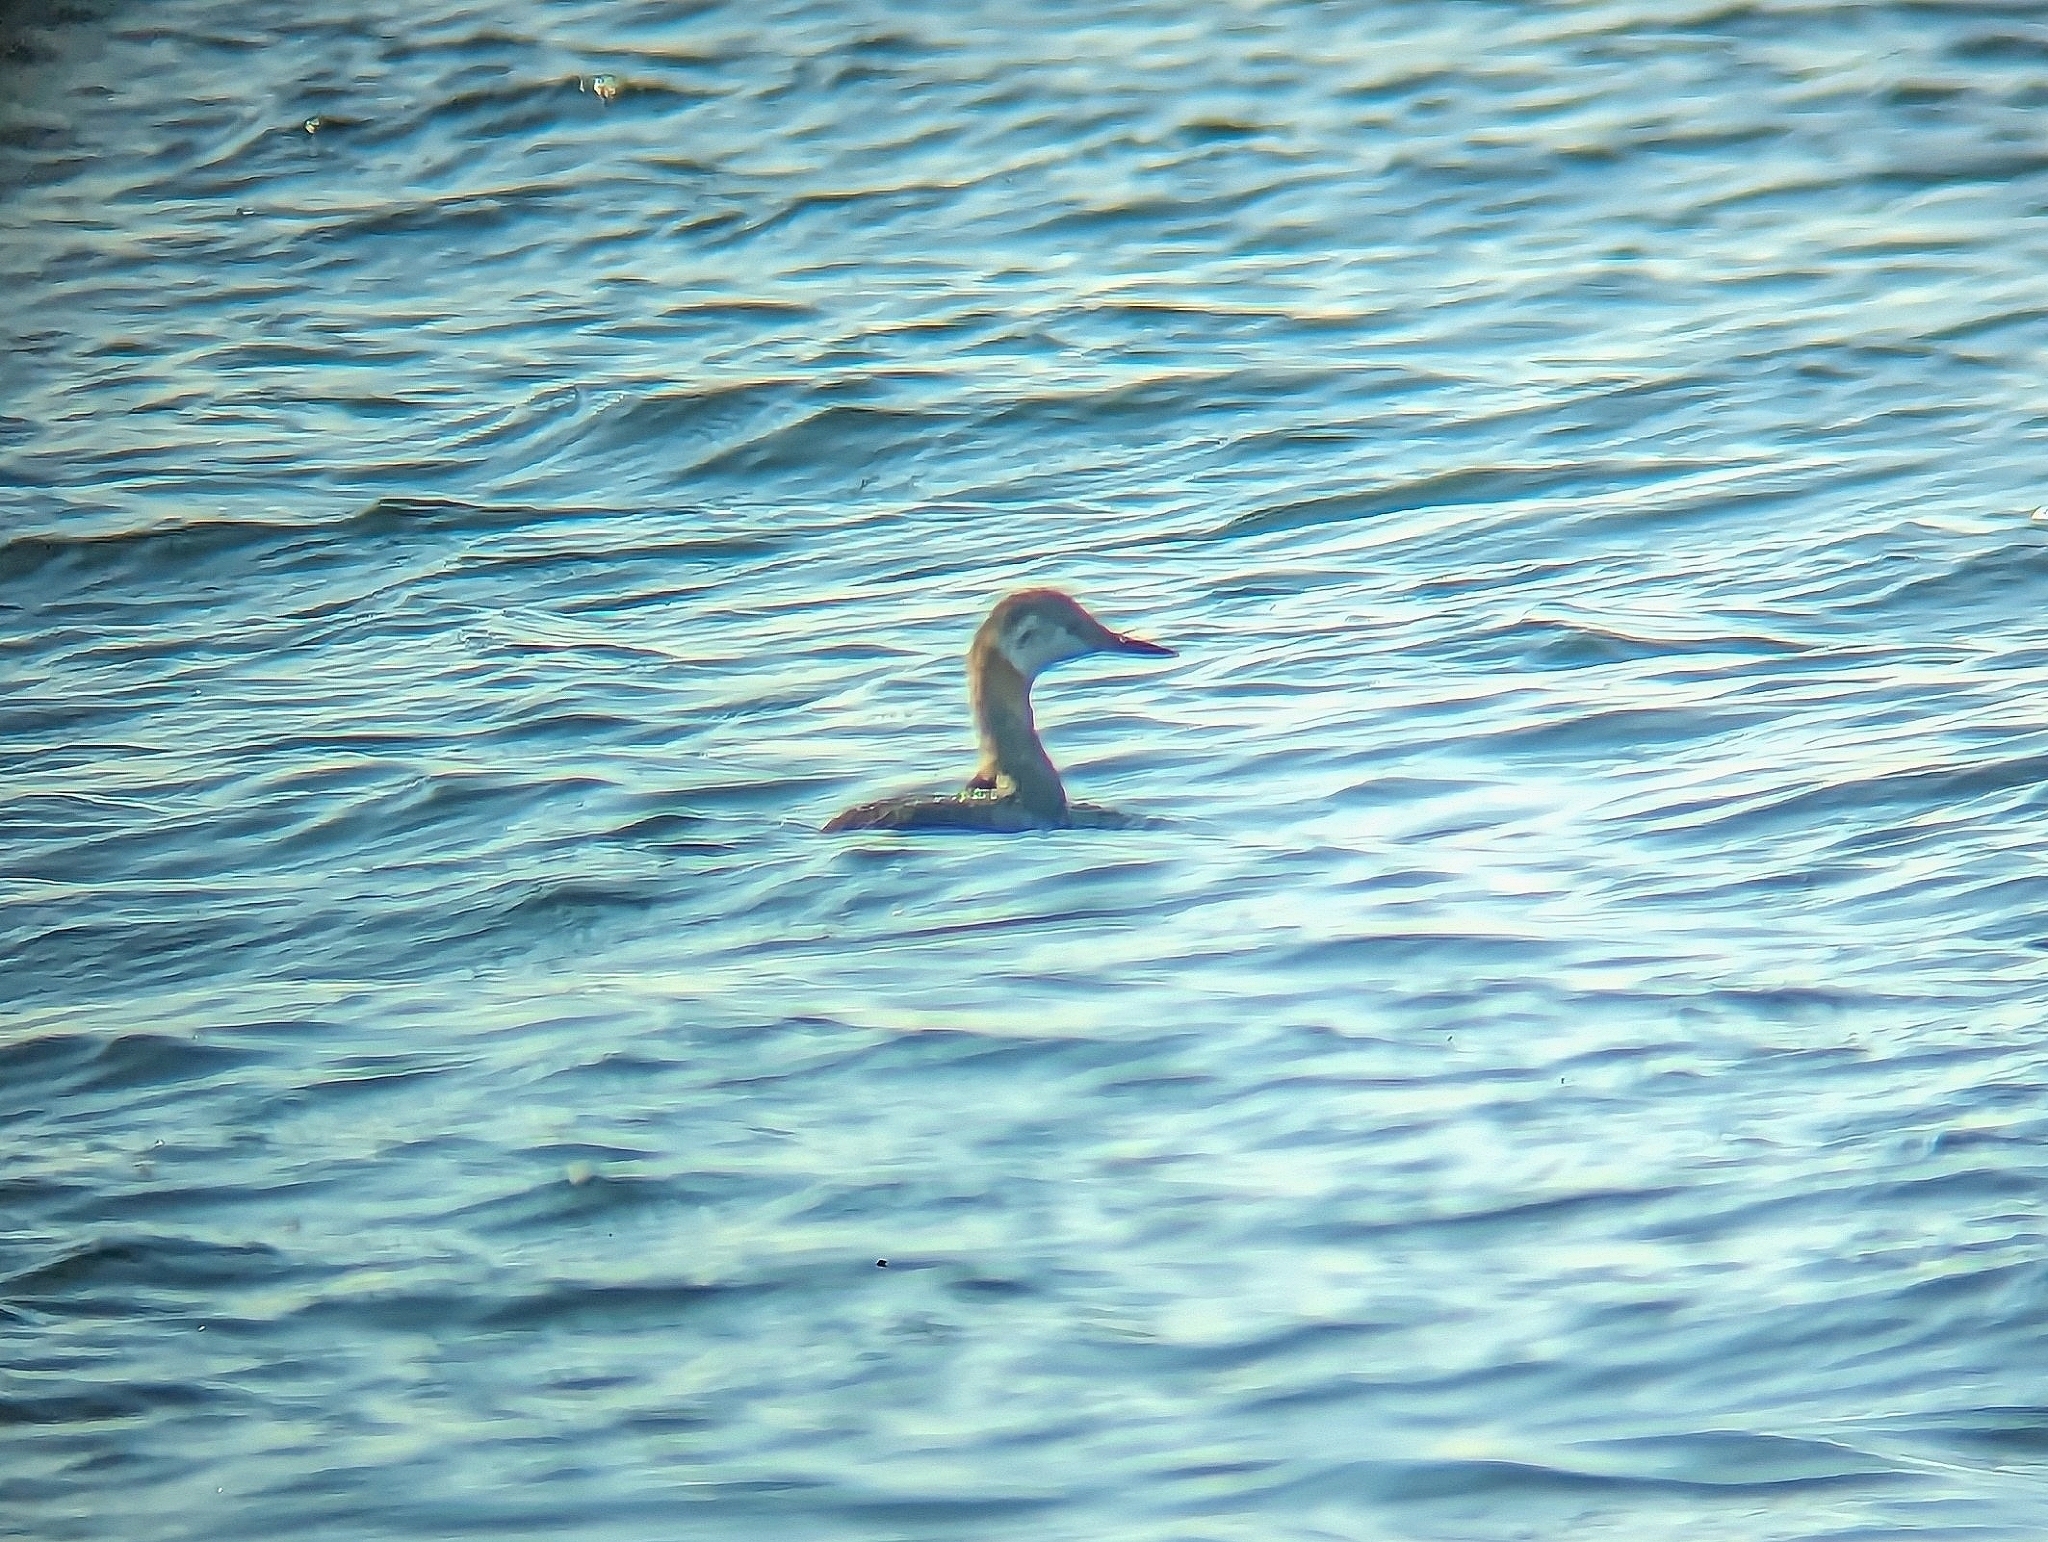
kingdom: Animalia
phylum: Chordata
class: Aves
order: Podicipediformes
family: Podicipedidae
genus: Podiceps
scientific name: Podiceps grisegena
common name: Red-necked grebe
